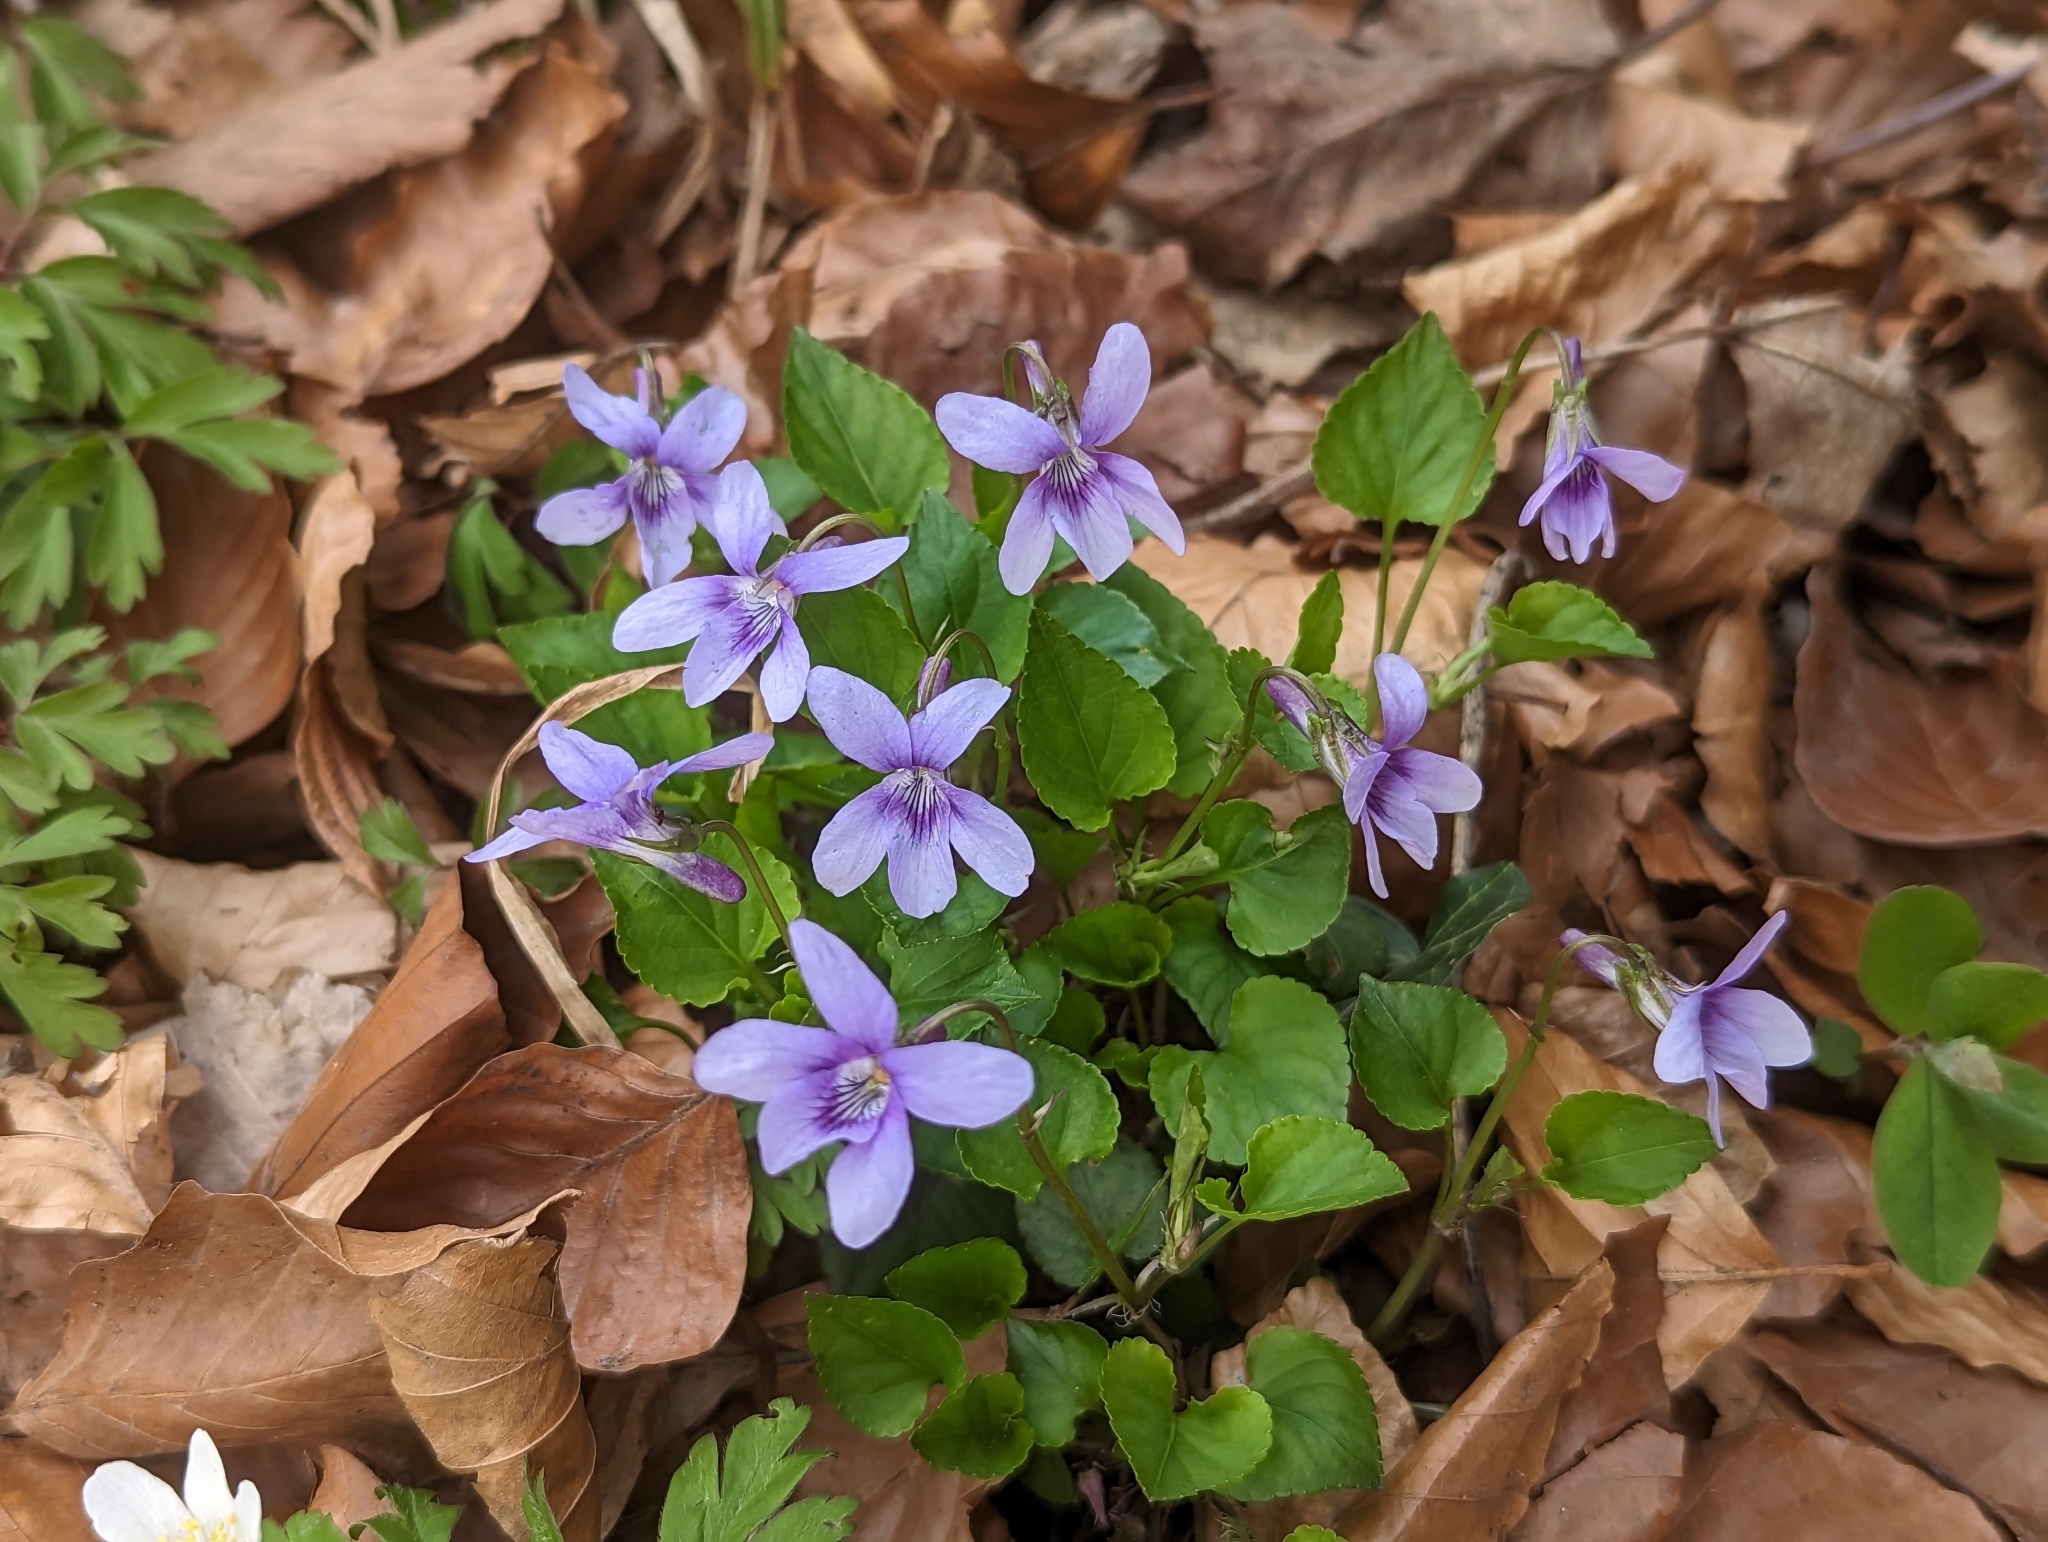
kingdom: Plantae
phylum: Tracheophyta
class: Magnoliopsida
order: Malpighiales
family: Violaceae
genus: Viola
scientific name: Viola reichenbachiana
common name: Early dog-violet
